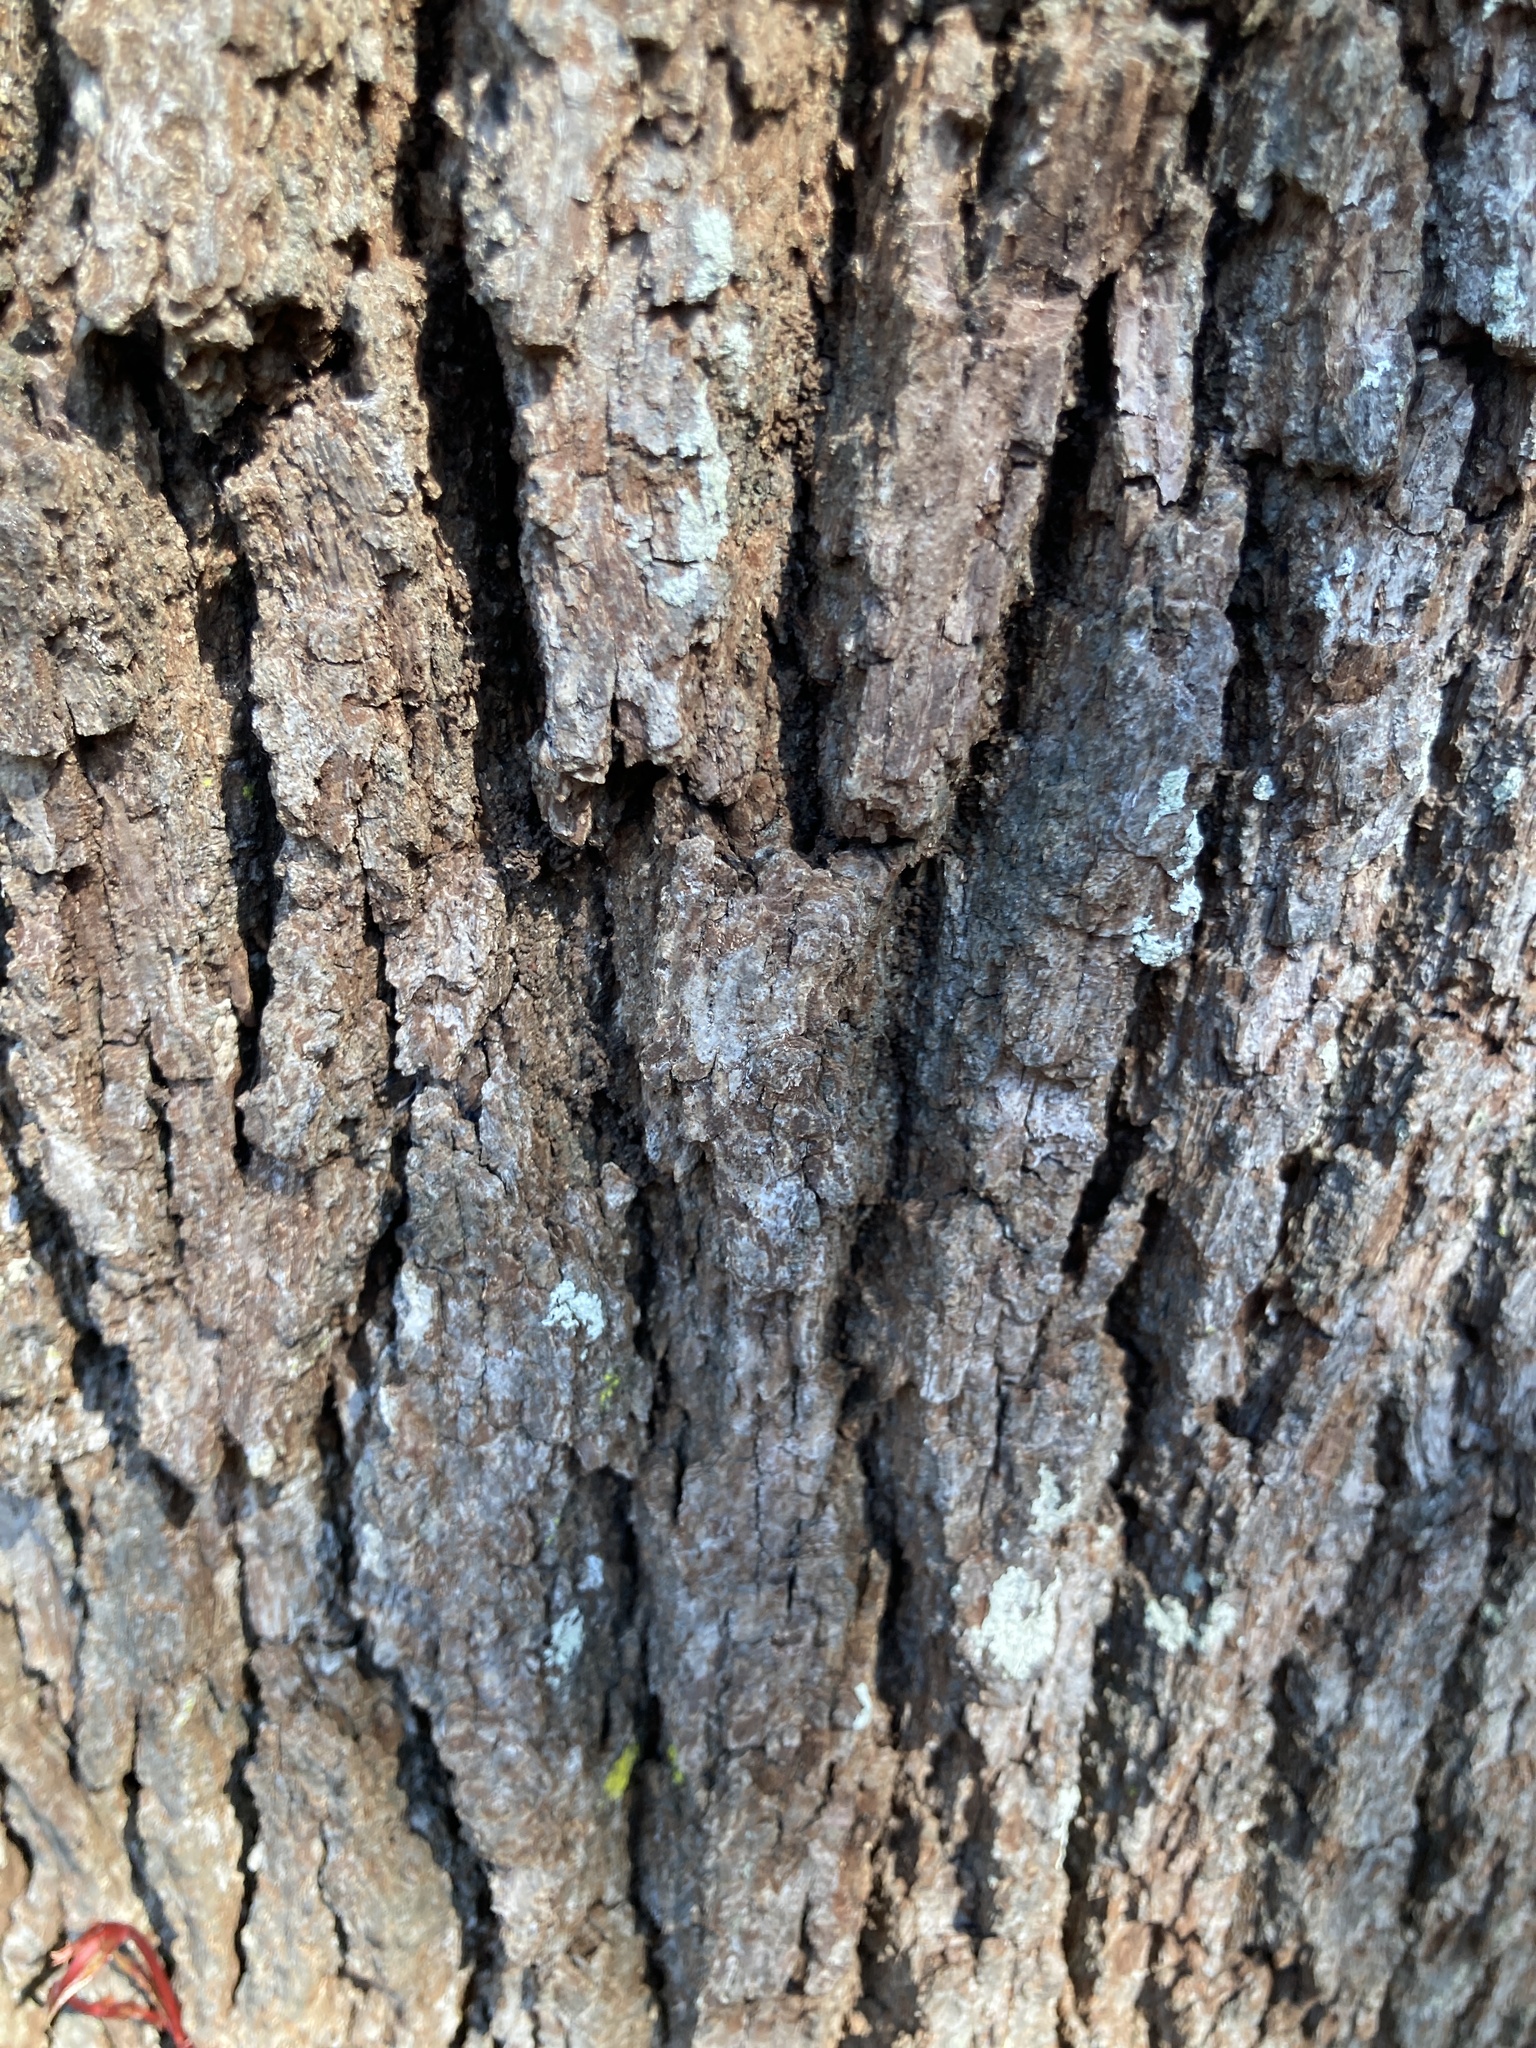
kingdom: Plantae
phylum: Tracheophyta
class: Magnoliopsida
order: Fagales
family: Fagaceae
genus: Quercus
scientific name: Quercus geminata
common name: Sand live oak
